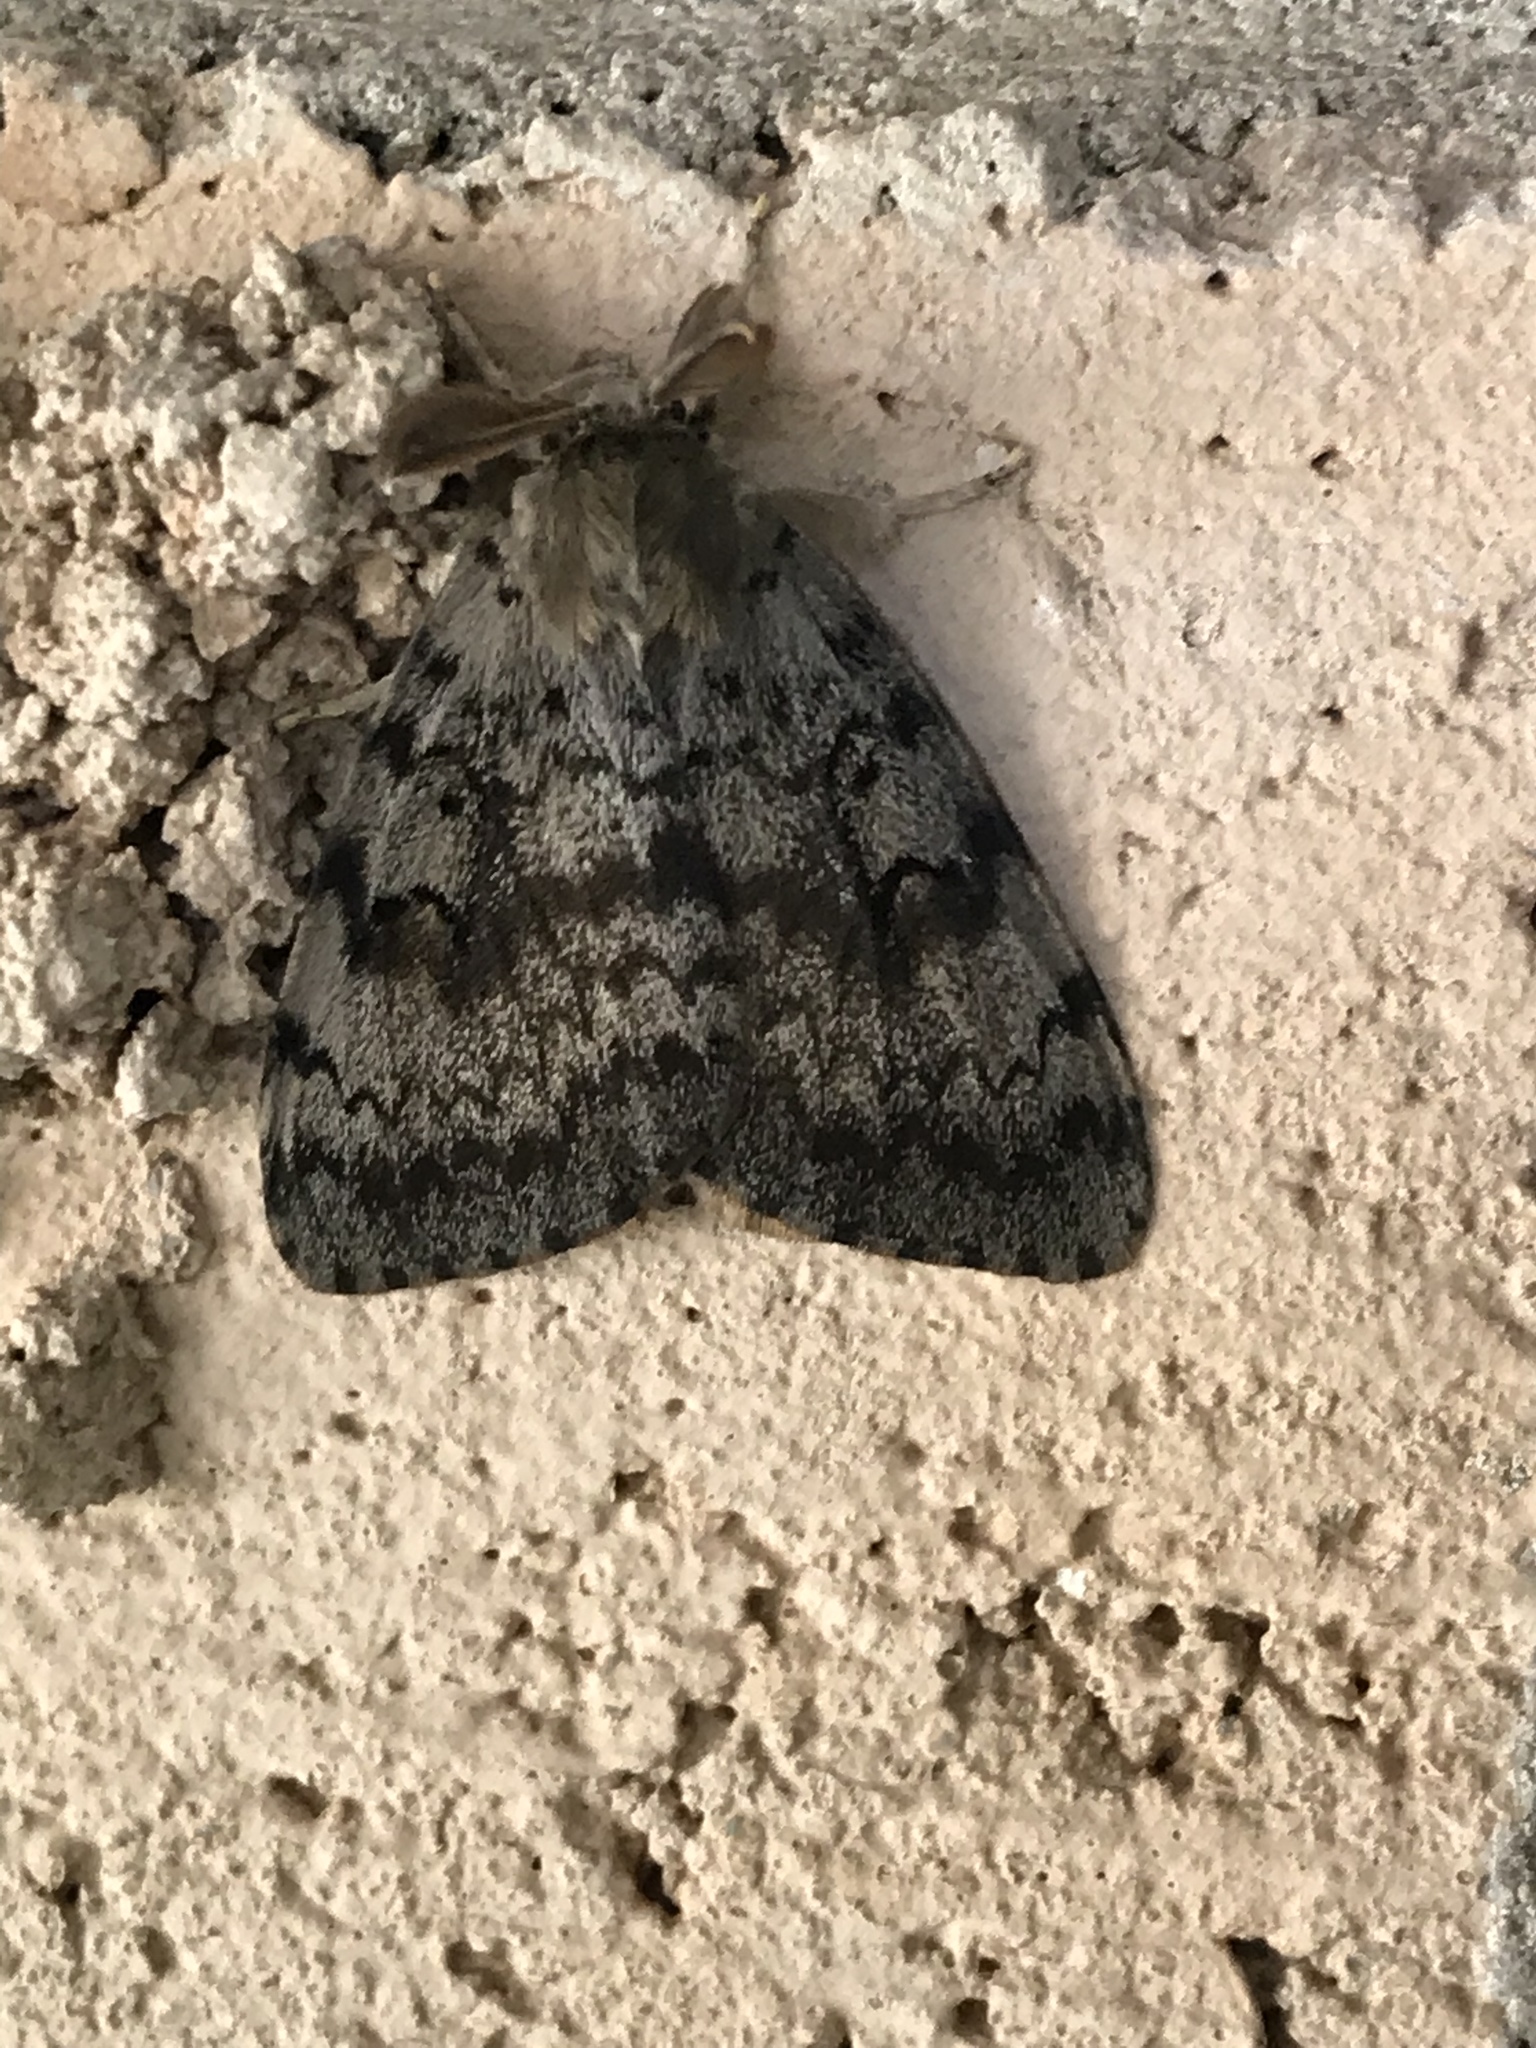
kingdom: Animalia
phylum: Arthropoda
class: Insecta
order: Lepidoptera
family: Erebidae
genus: Lymantria
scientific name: Lymantria dispar
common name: Gypsy moth
